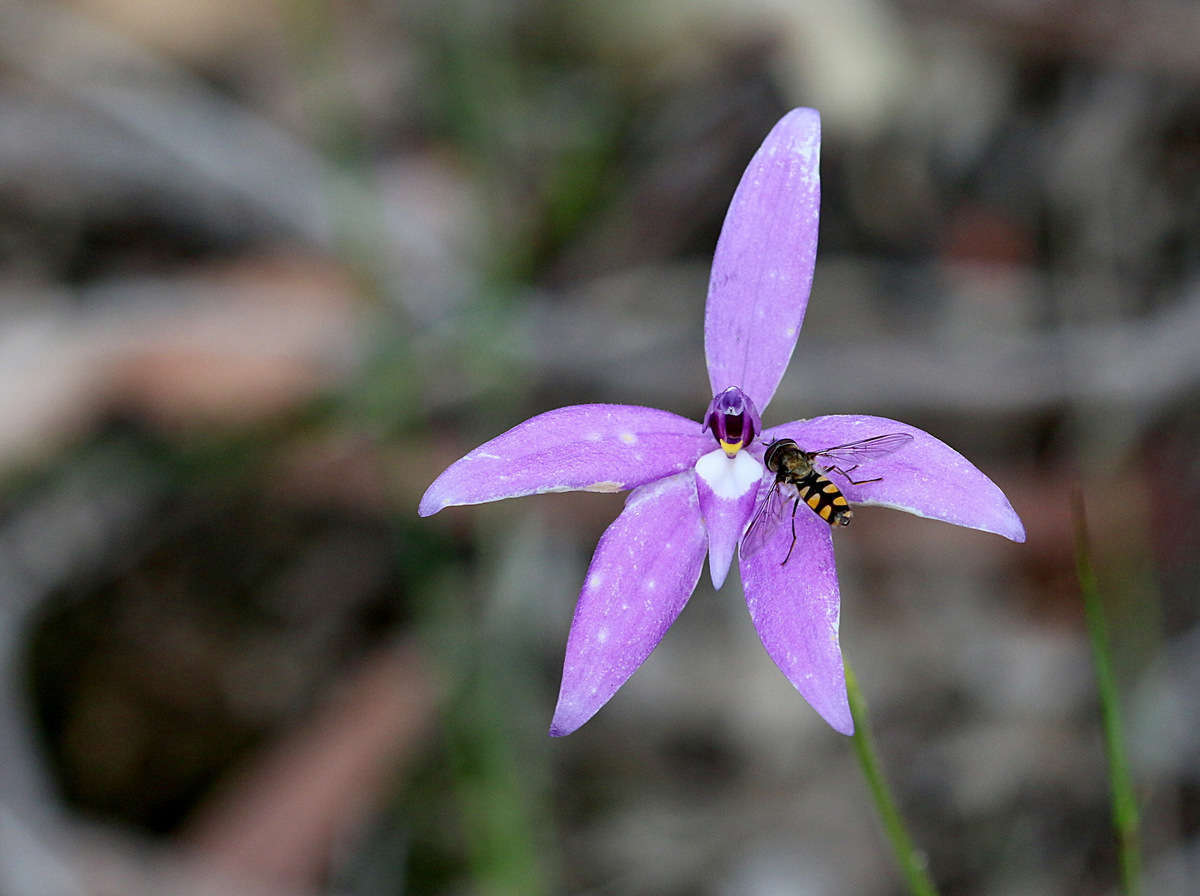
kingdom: Plantae
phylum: Tracheophyta
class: Liliopsida
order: Asparagales
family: Orchidaceae
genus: Caladenia
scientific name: Caladenia major
